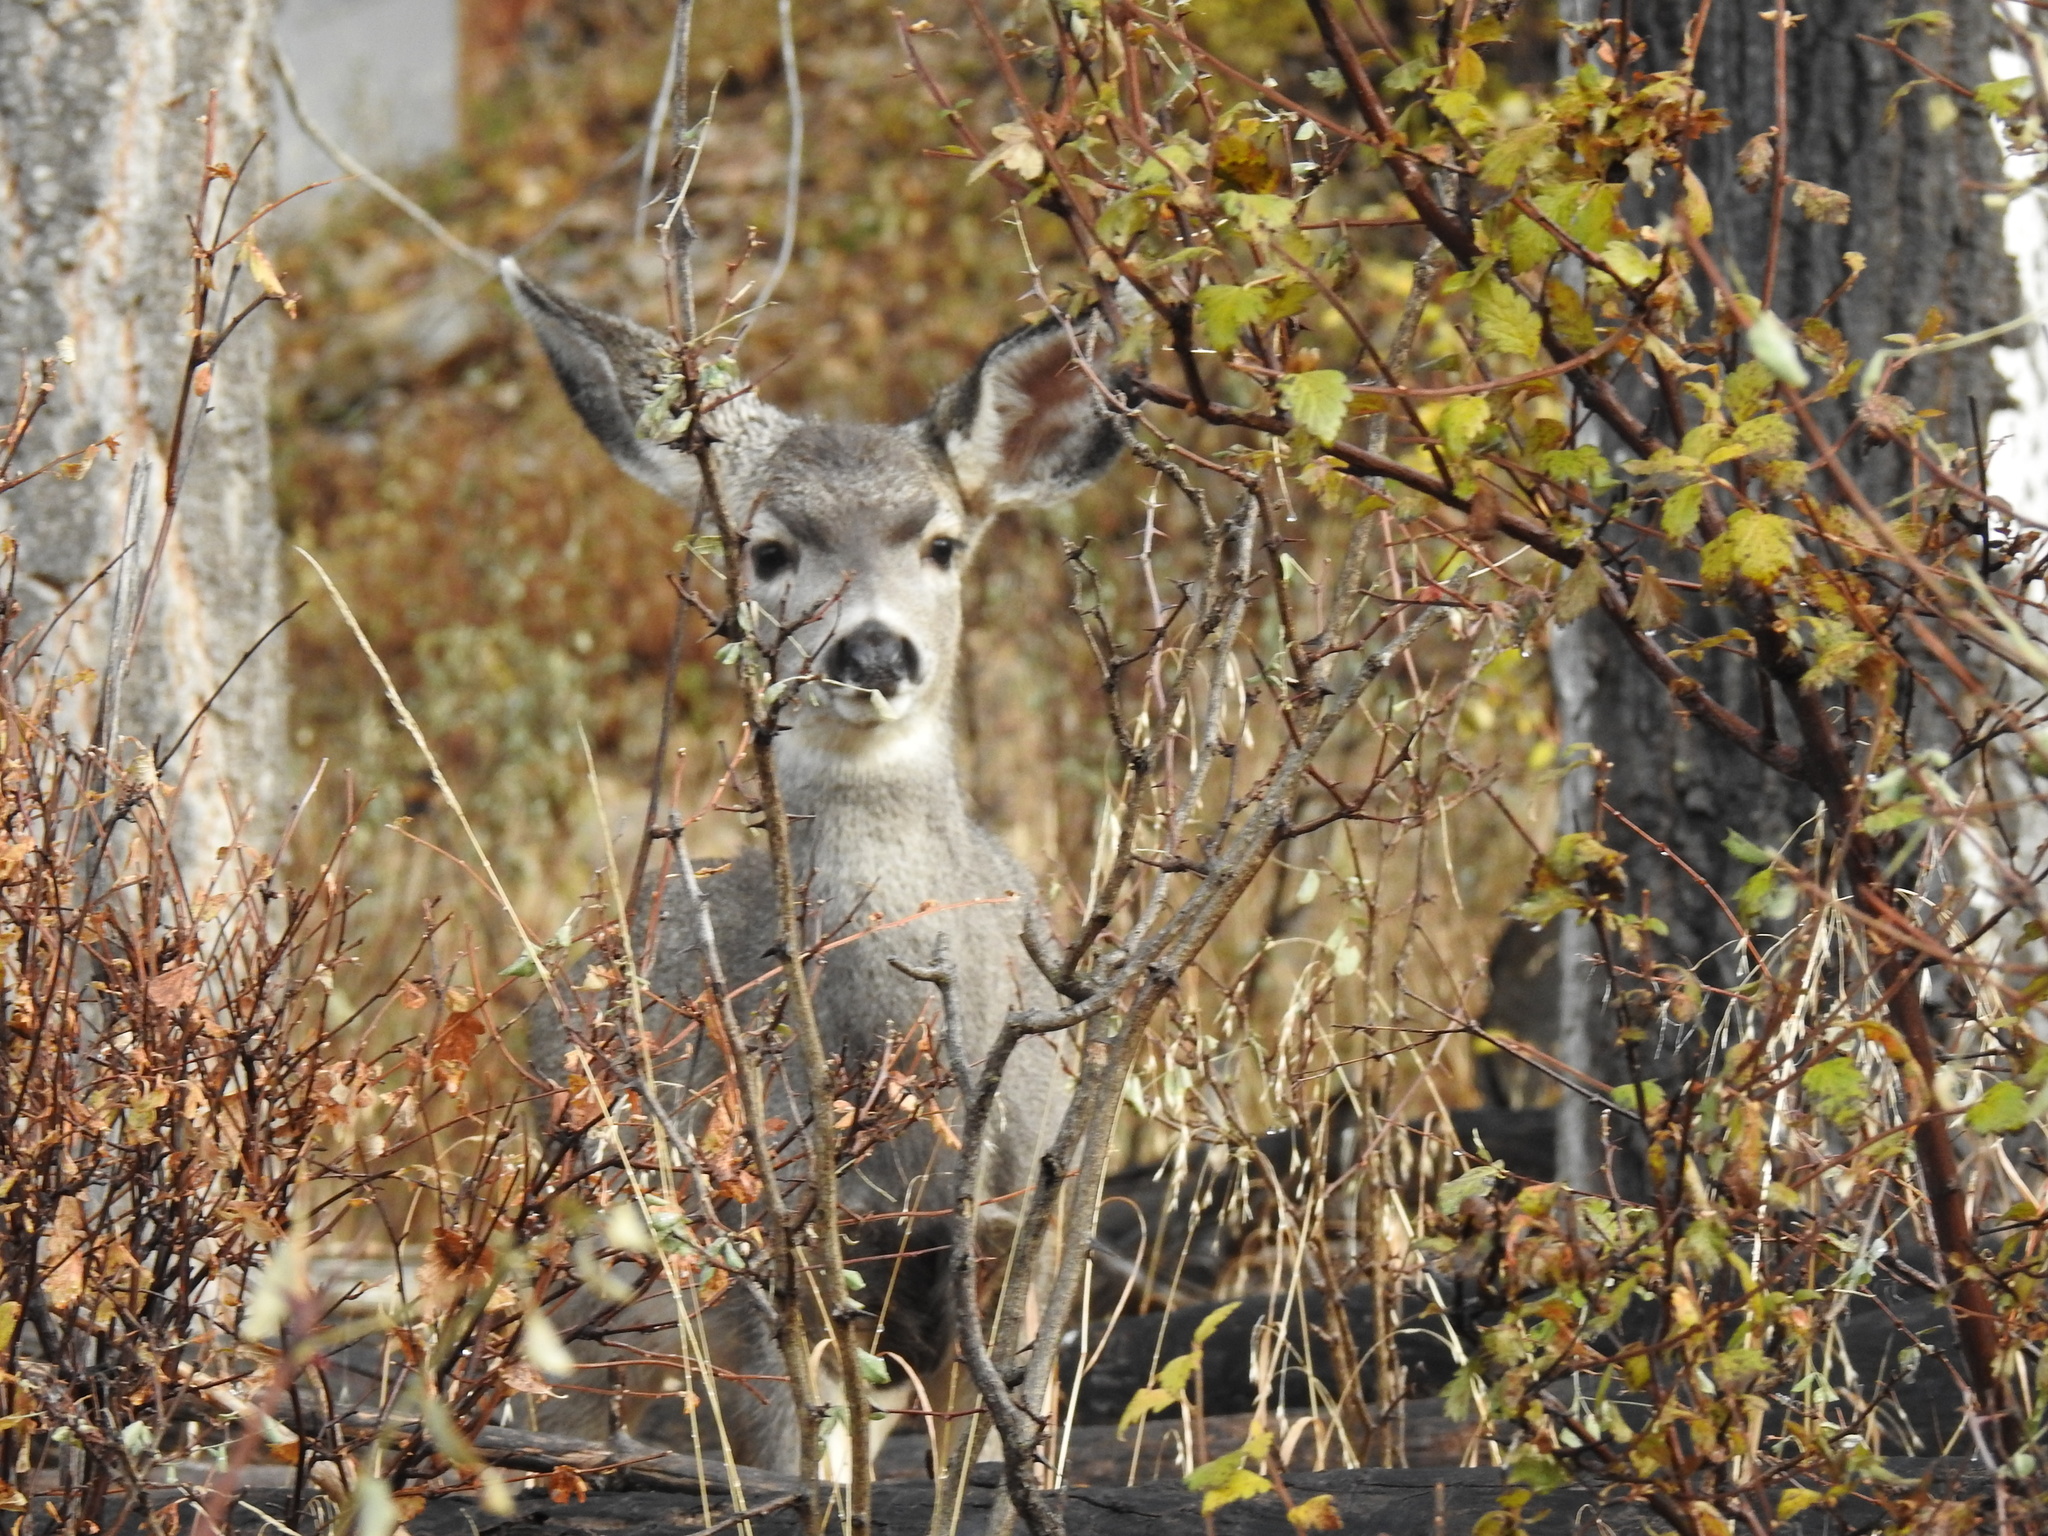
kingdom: Animalia
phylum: Chordata
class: Mammalia
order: Artiodactyla
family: Cervidae
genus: Odocoileus
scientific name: Odocoileus hemionus
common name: Mule deer
